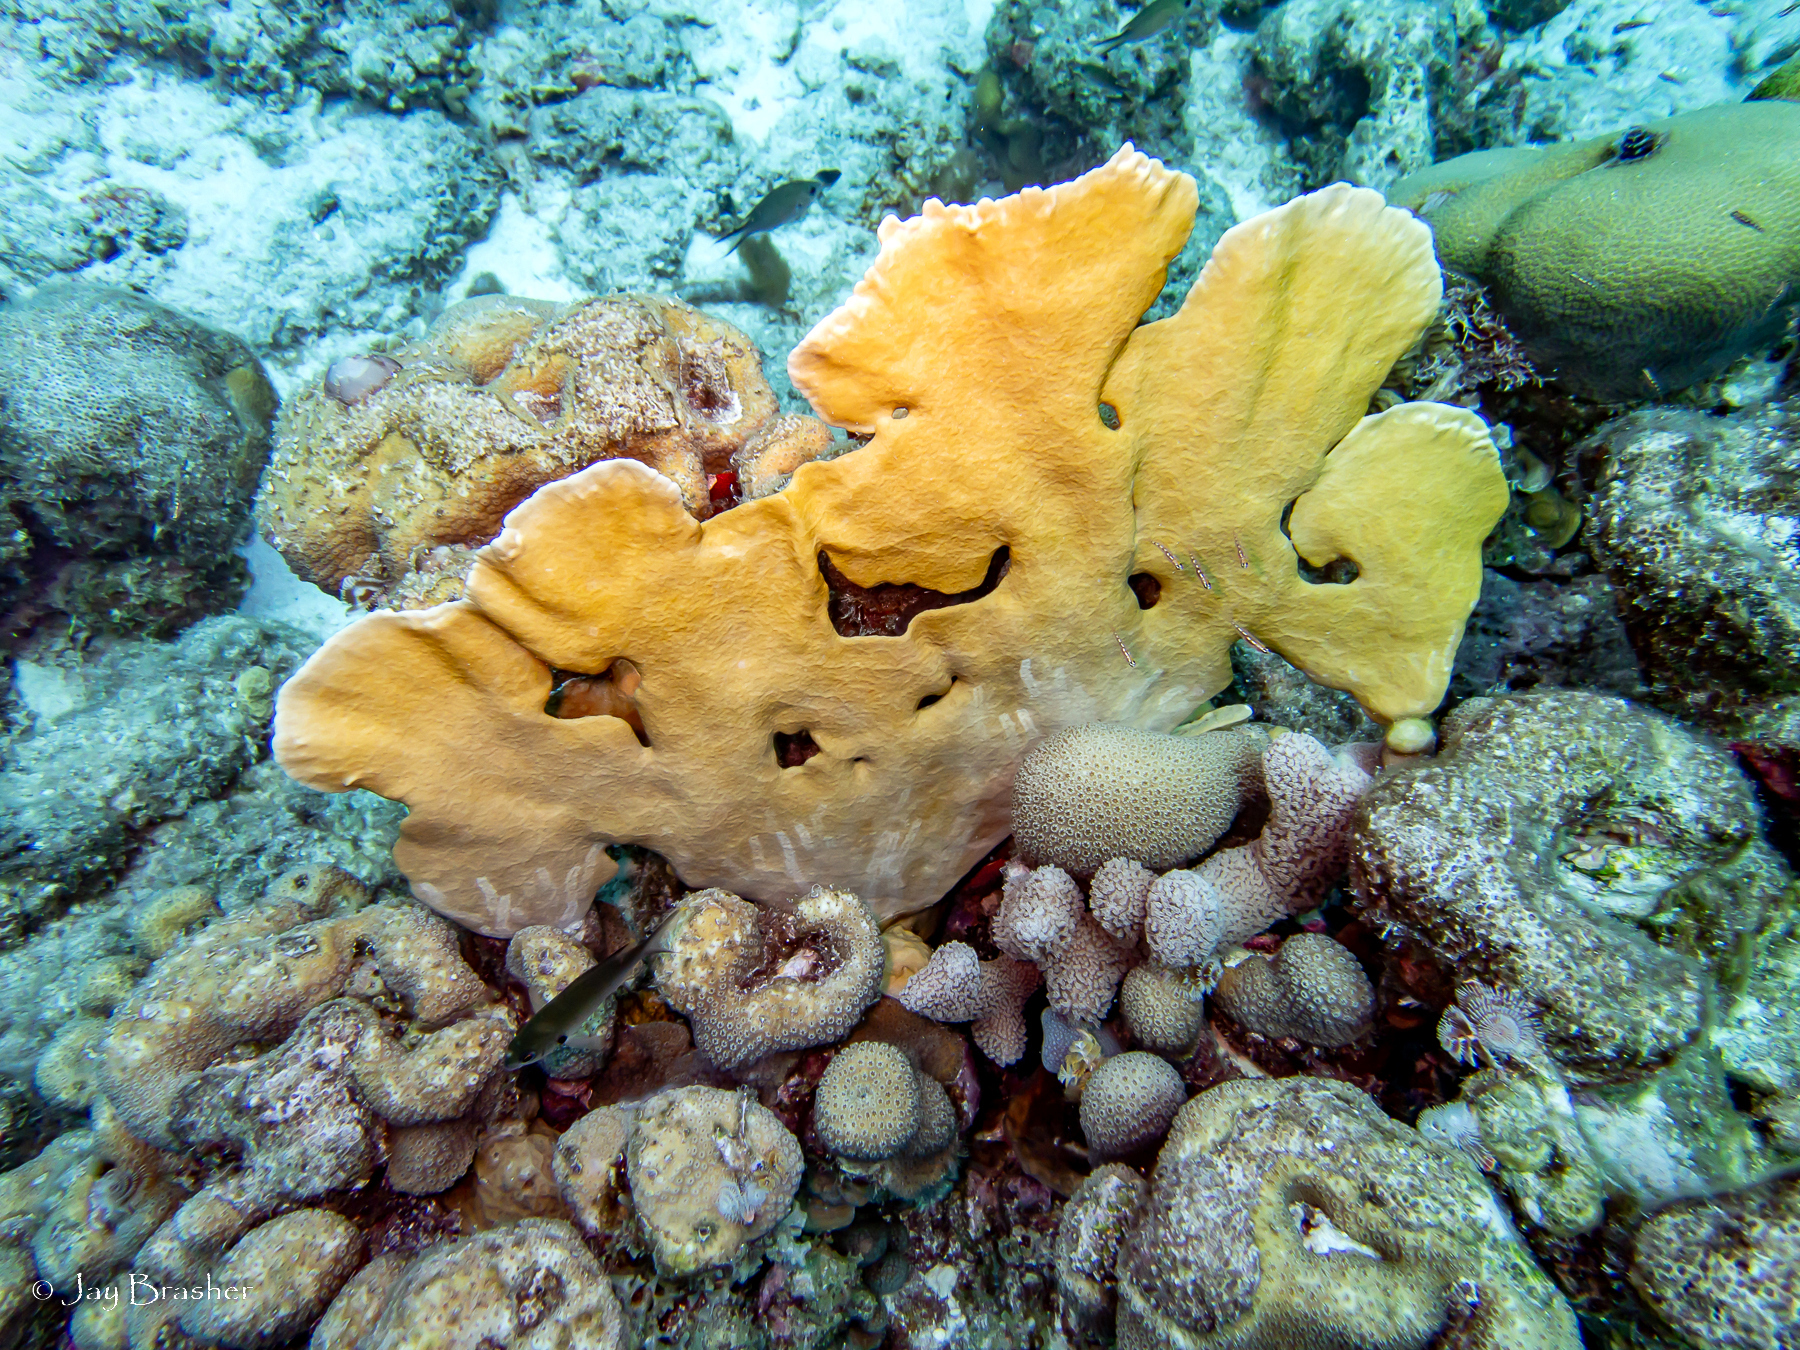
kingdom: Animalia
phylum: Cnidaria
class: Anthozoa
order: Scleractinia
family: Merulinidae
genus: Orbicella
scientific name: Orbicella annularis
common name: Boulder star coral
